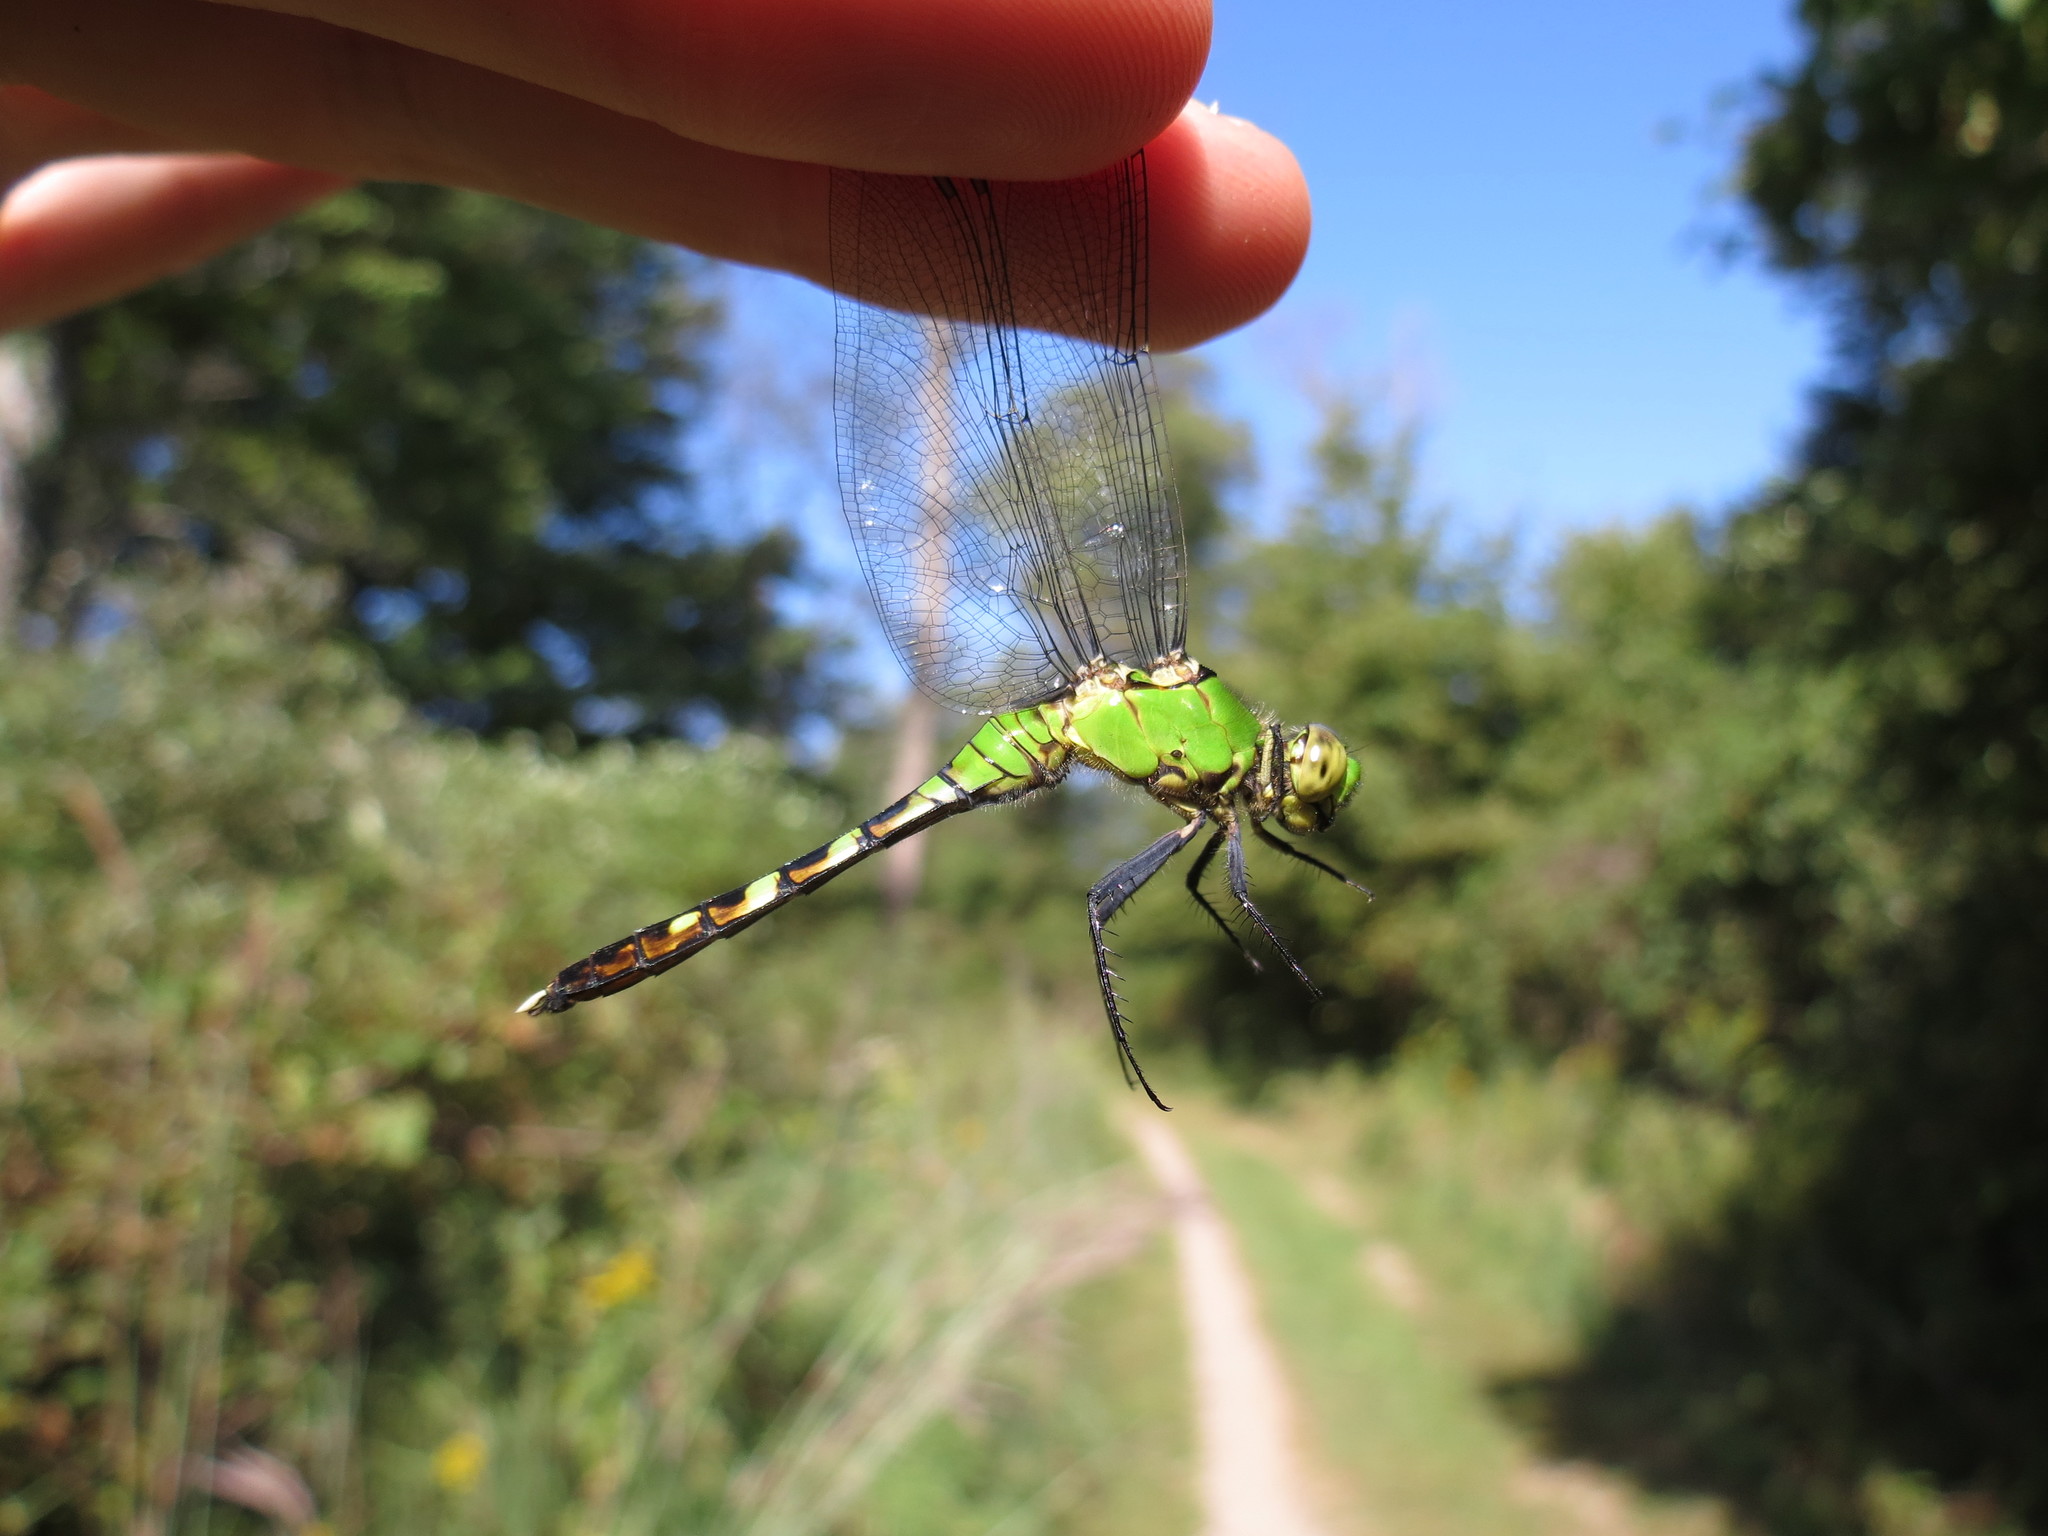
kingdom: Animalia
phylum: Arthropoda
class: Insecta
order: Odonata
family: Libellulidae
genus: Erythemis
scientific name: Erythemis simplicicollis
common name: Eastern pondhawk
